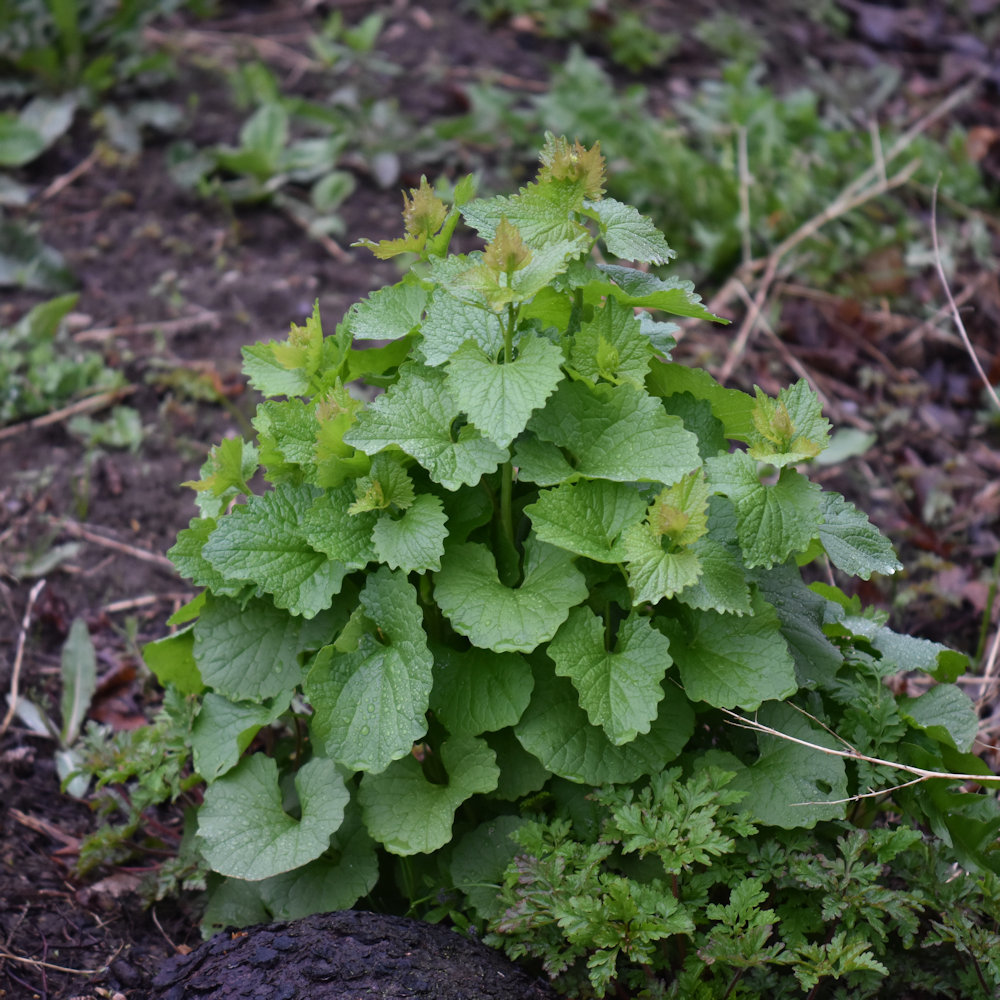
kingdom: Plantae
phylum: Tracheophyta
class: Magnoliopsida
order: Brassicales
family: Brassicaceae
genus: Alliaria
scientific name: Alliaria petiolata
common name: Garlic mustard
